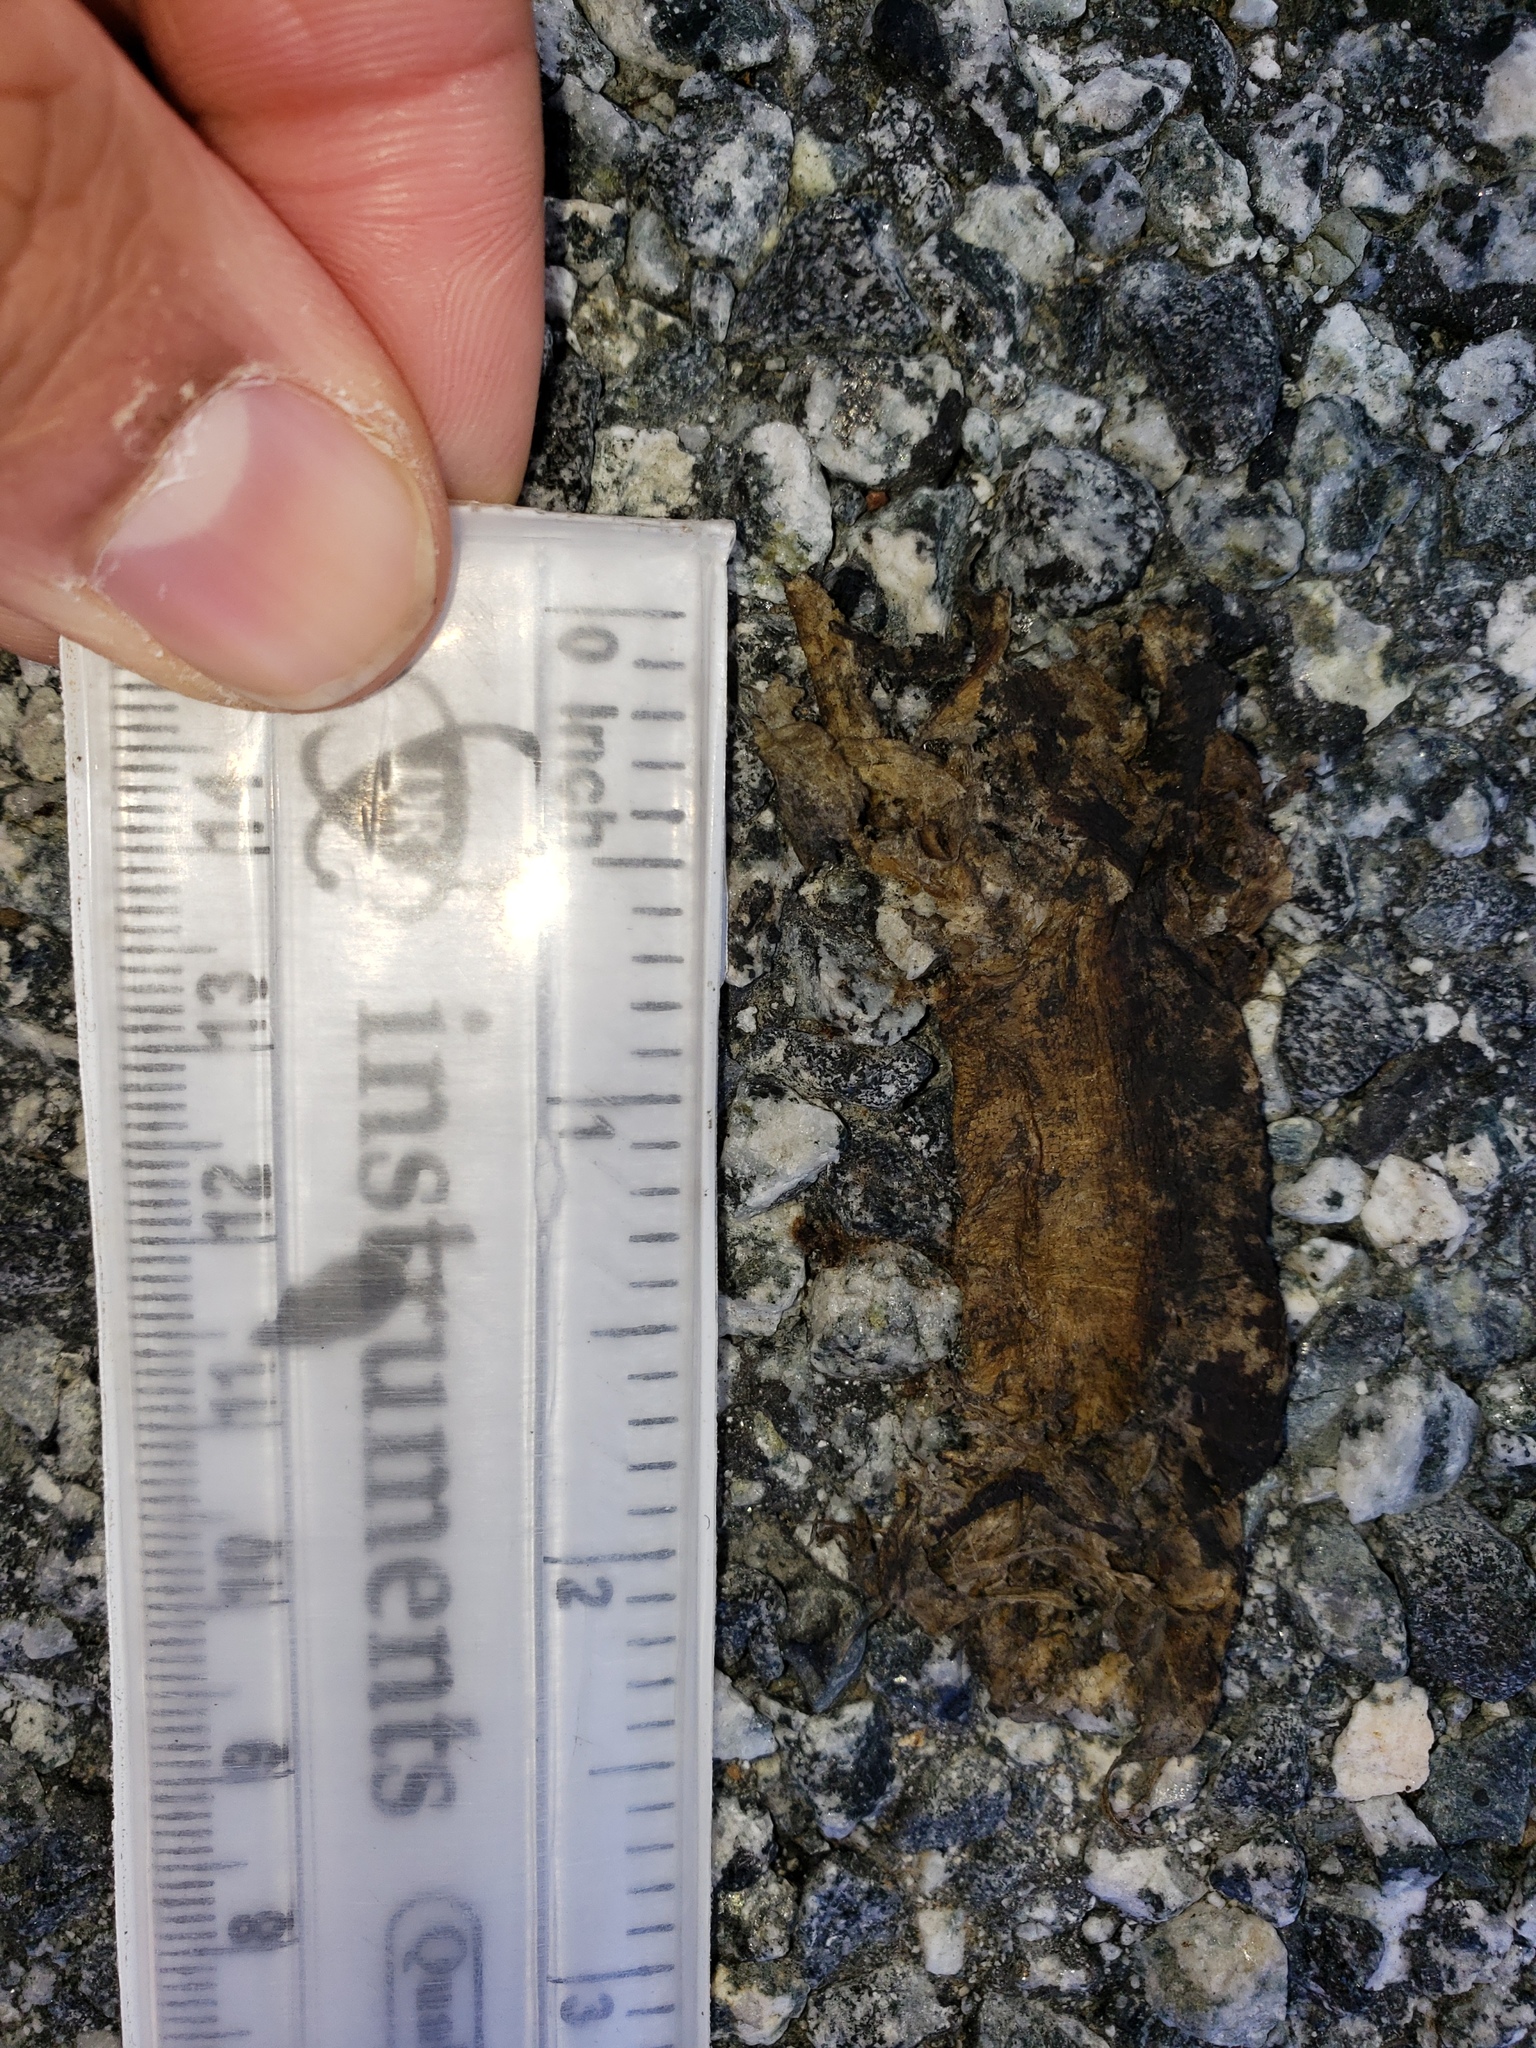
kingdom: Animalia
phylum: Chordata
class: Amphibia
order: Caudata
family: Salamandridae
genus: Taricha
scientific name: Taricha
